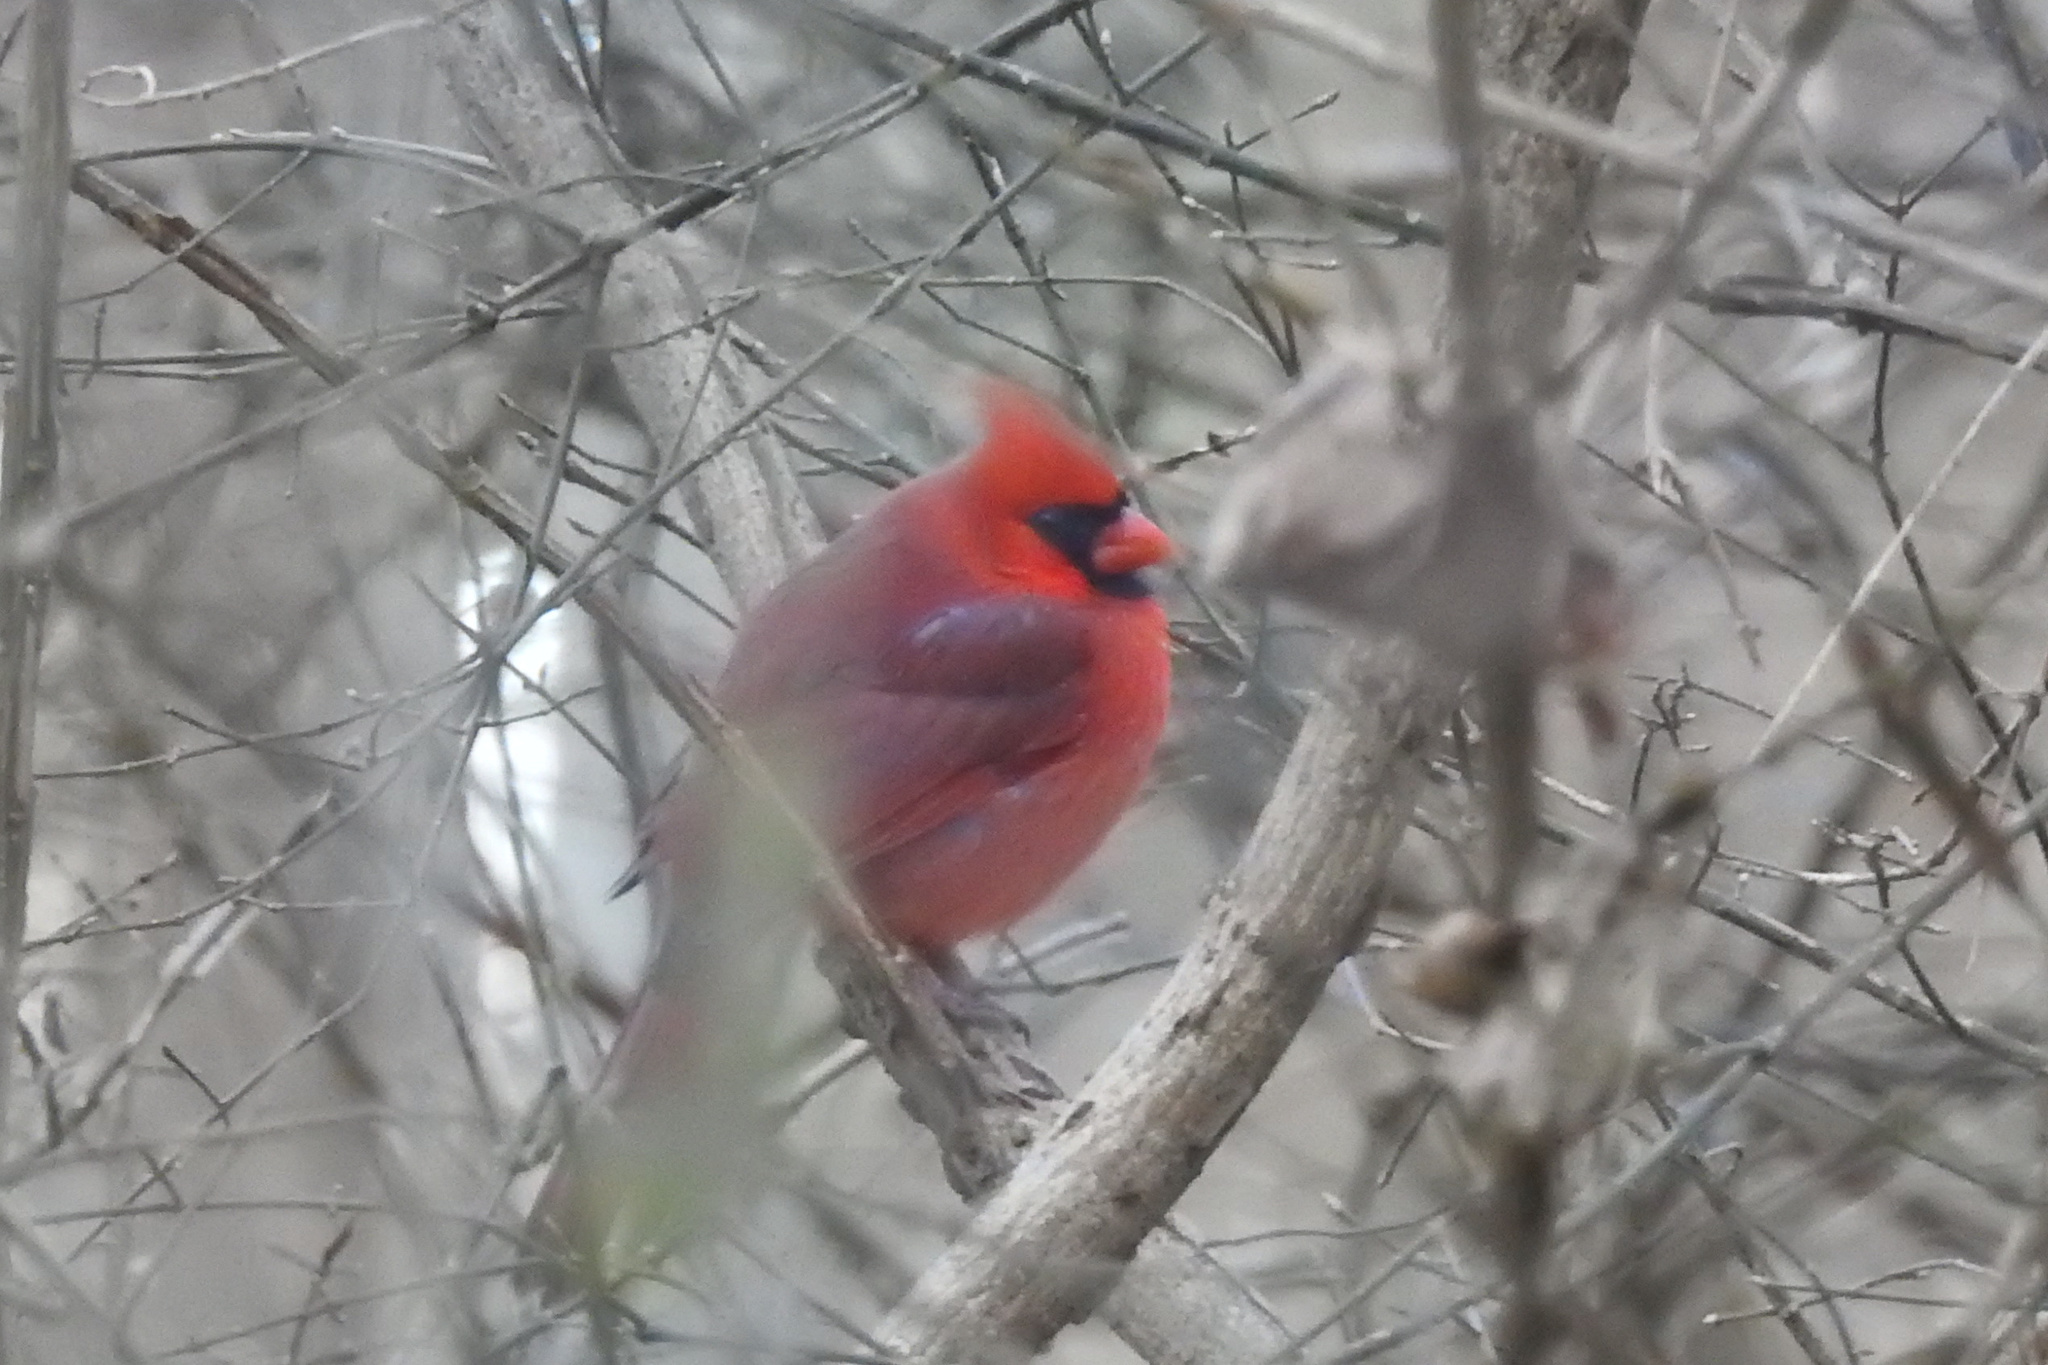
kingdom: Animalia
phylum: Chordata
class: Aves
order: Passeriformes
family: Cardinalidae
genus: Cardinalis
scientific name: Cardinalis cardinalis
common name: Northern cardinal
